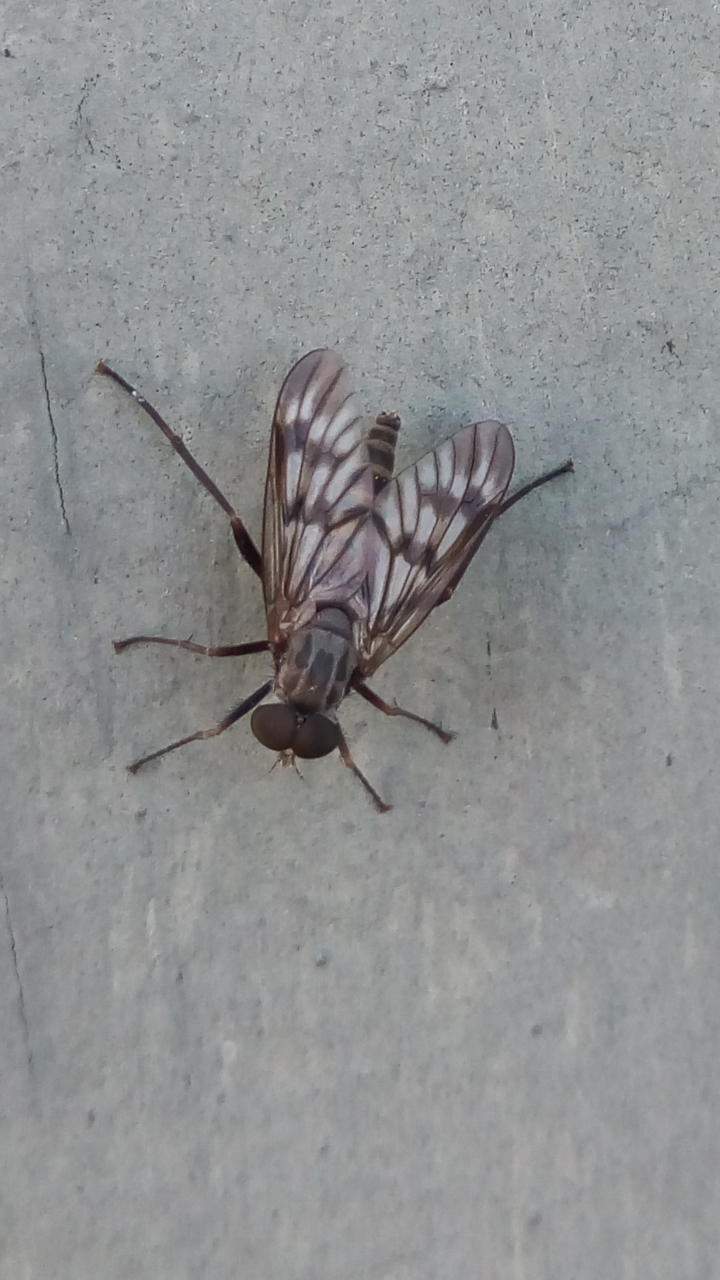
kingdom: Animalia
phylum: Arthropoda
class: Insecta
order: Diptera
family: Rhagionidae
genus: Rhagio
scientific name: Rhagio mystaceus
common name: Common snipe fly
